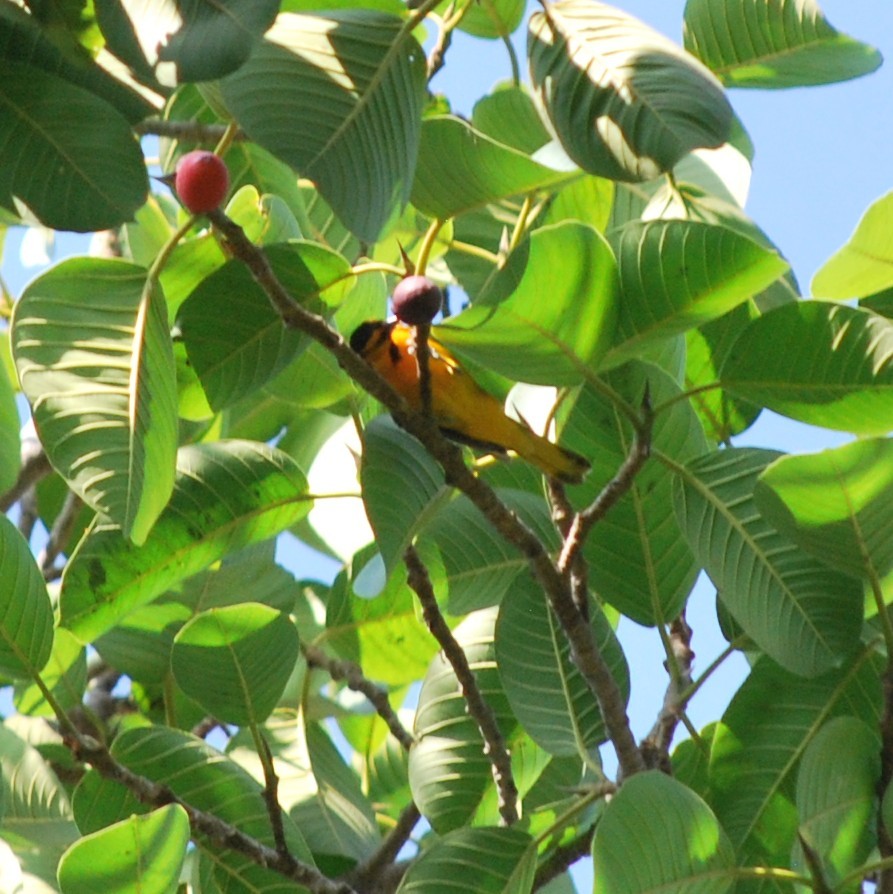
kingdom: Animalia
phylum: Chordata
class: Aves
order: Passeriformes
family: Icteridae
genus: Icterus
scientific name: Icterus bullockii
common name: Bullock's oriole
